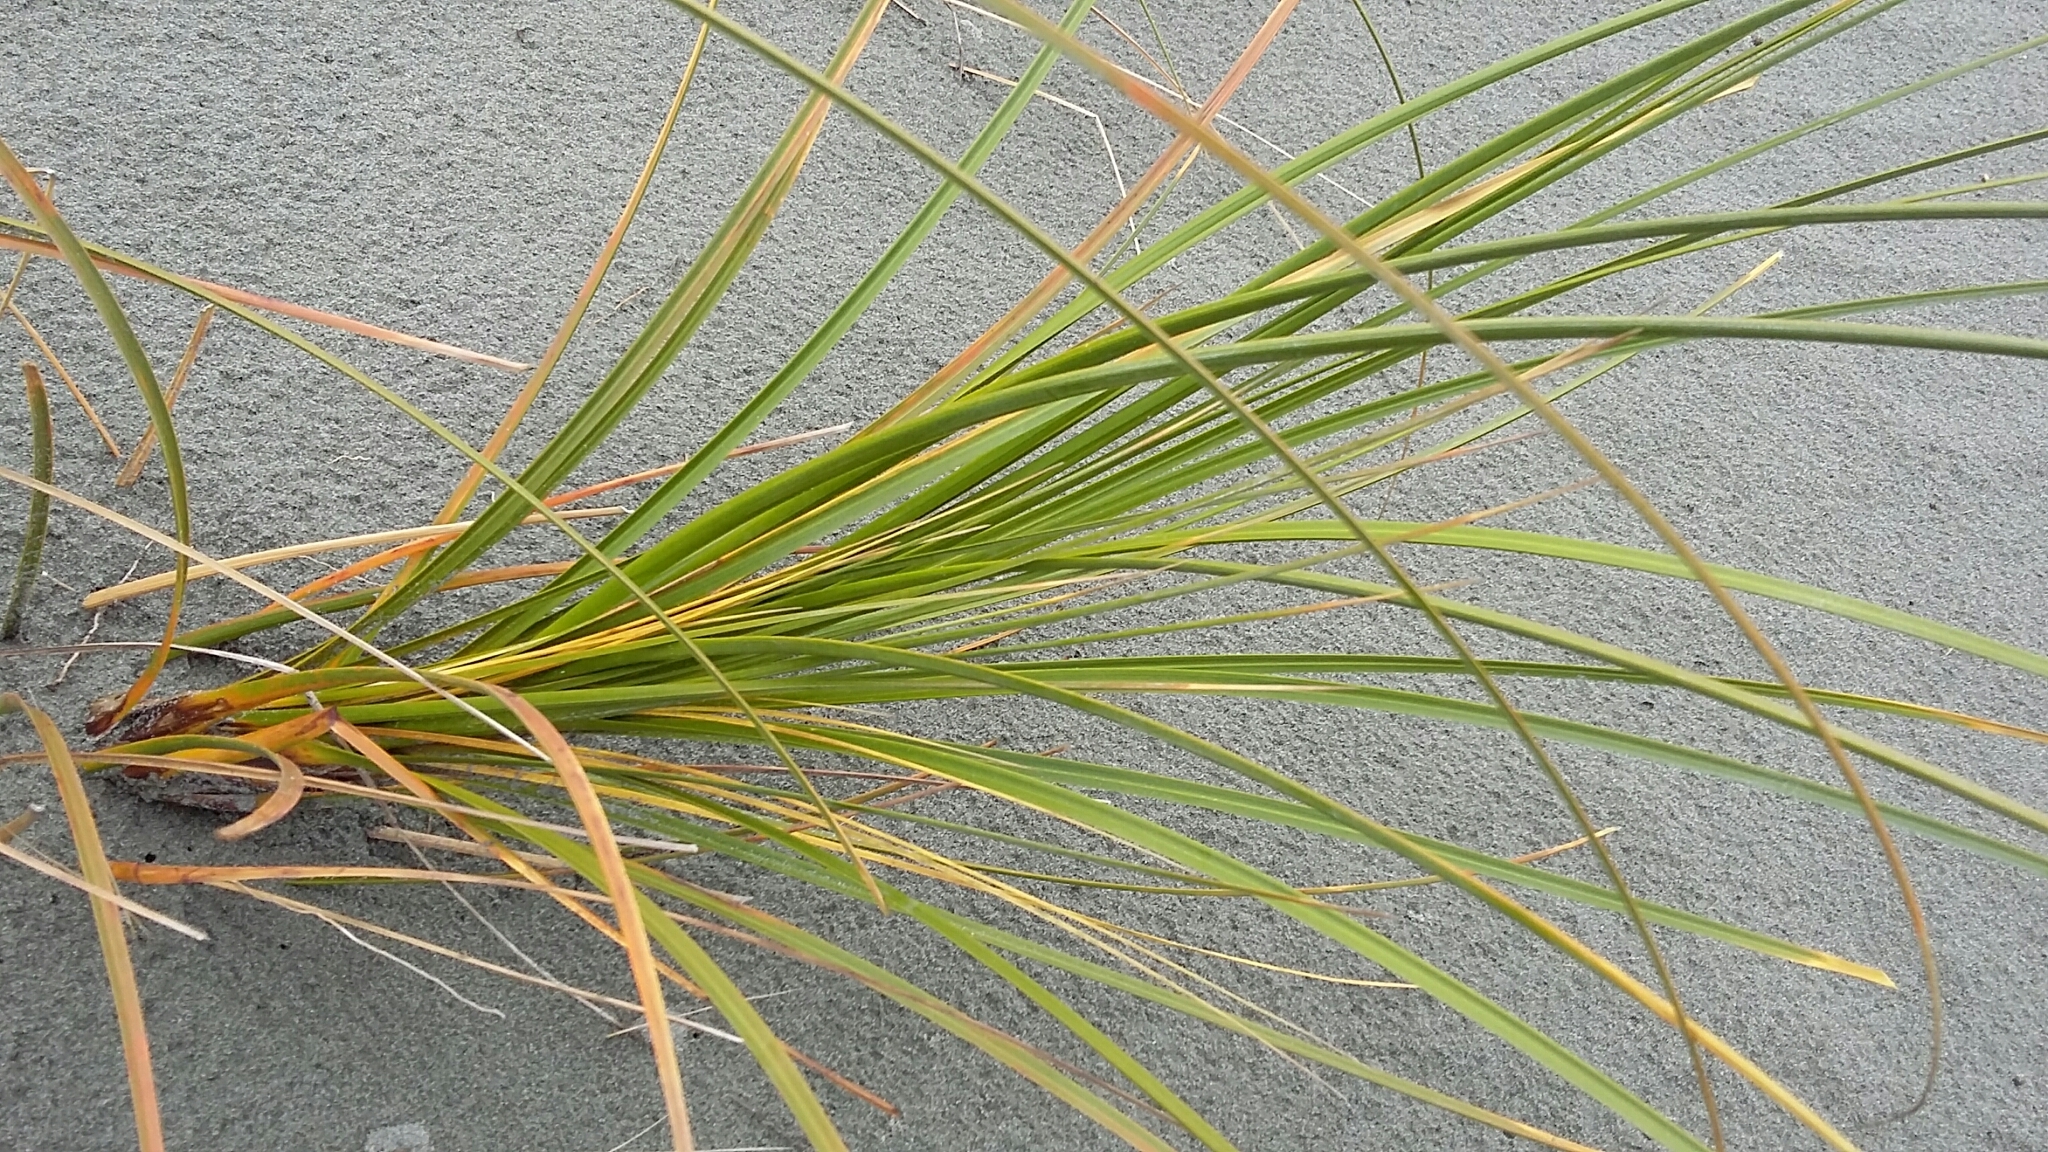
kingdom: Plantae
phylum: Tracheophyta
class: Liliopsida
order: Poales
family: Cyperaceae
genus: Ficinia
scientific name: Ficinia spiralis
